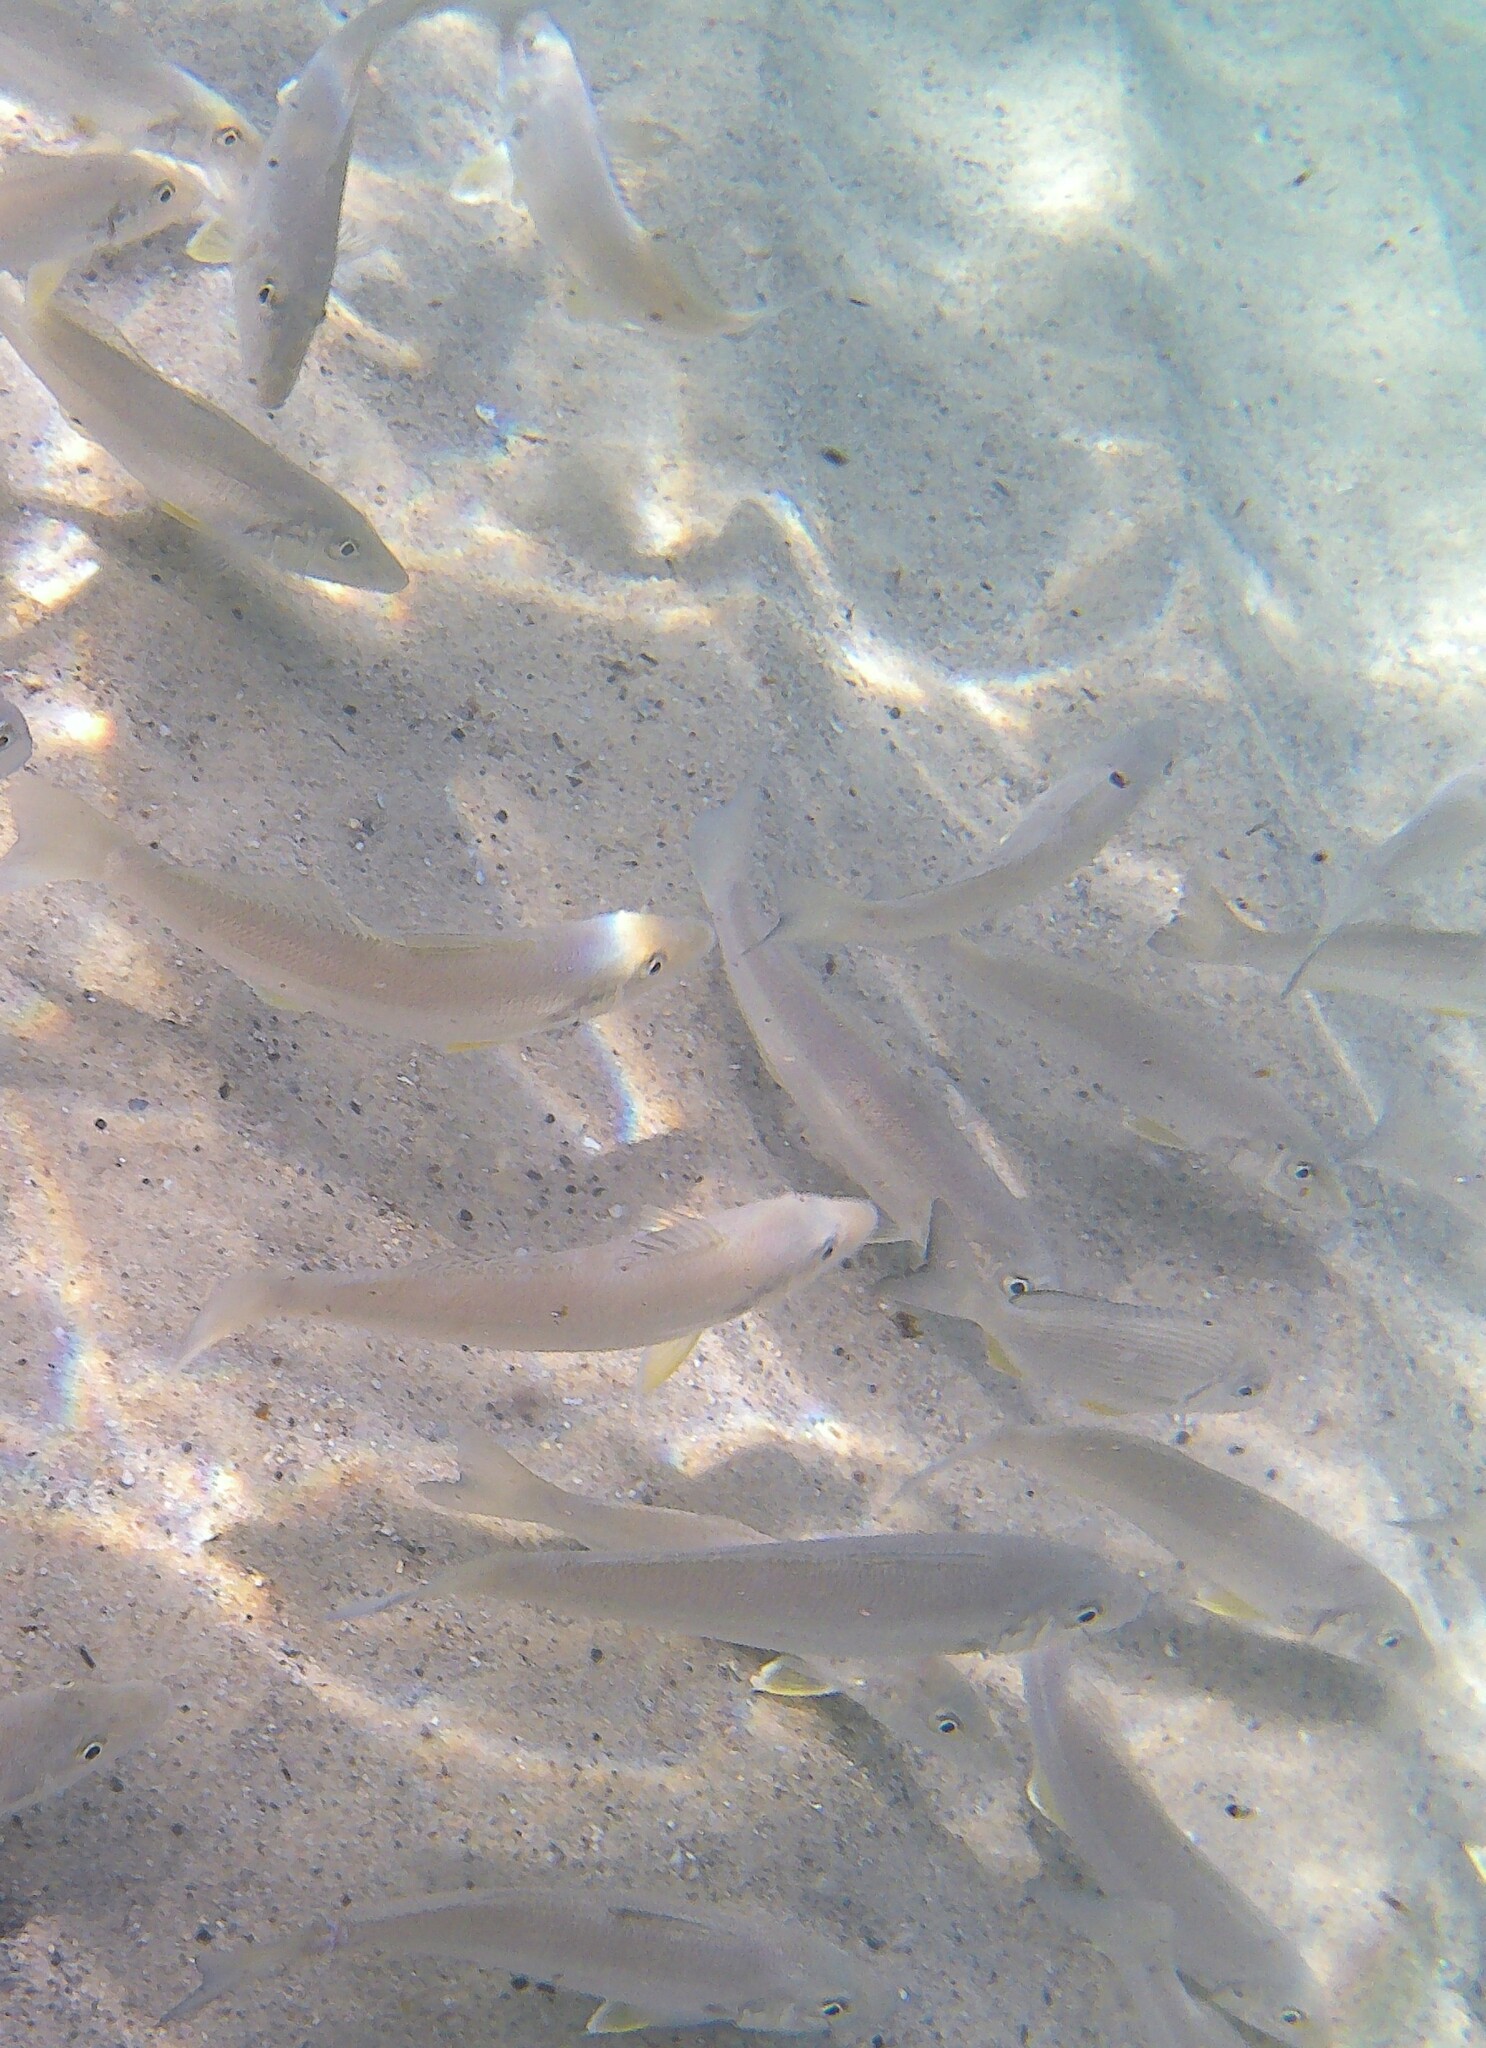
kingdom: Animalia
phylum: Chordata
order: Perciformes
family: Sillaginidae
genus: Sillago
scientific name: Sillago ciliata
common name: Sand sillago
